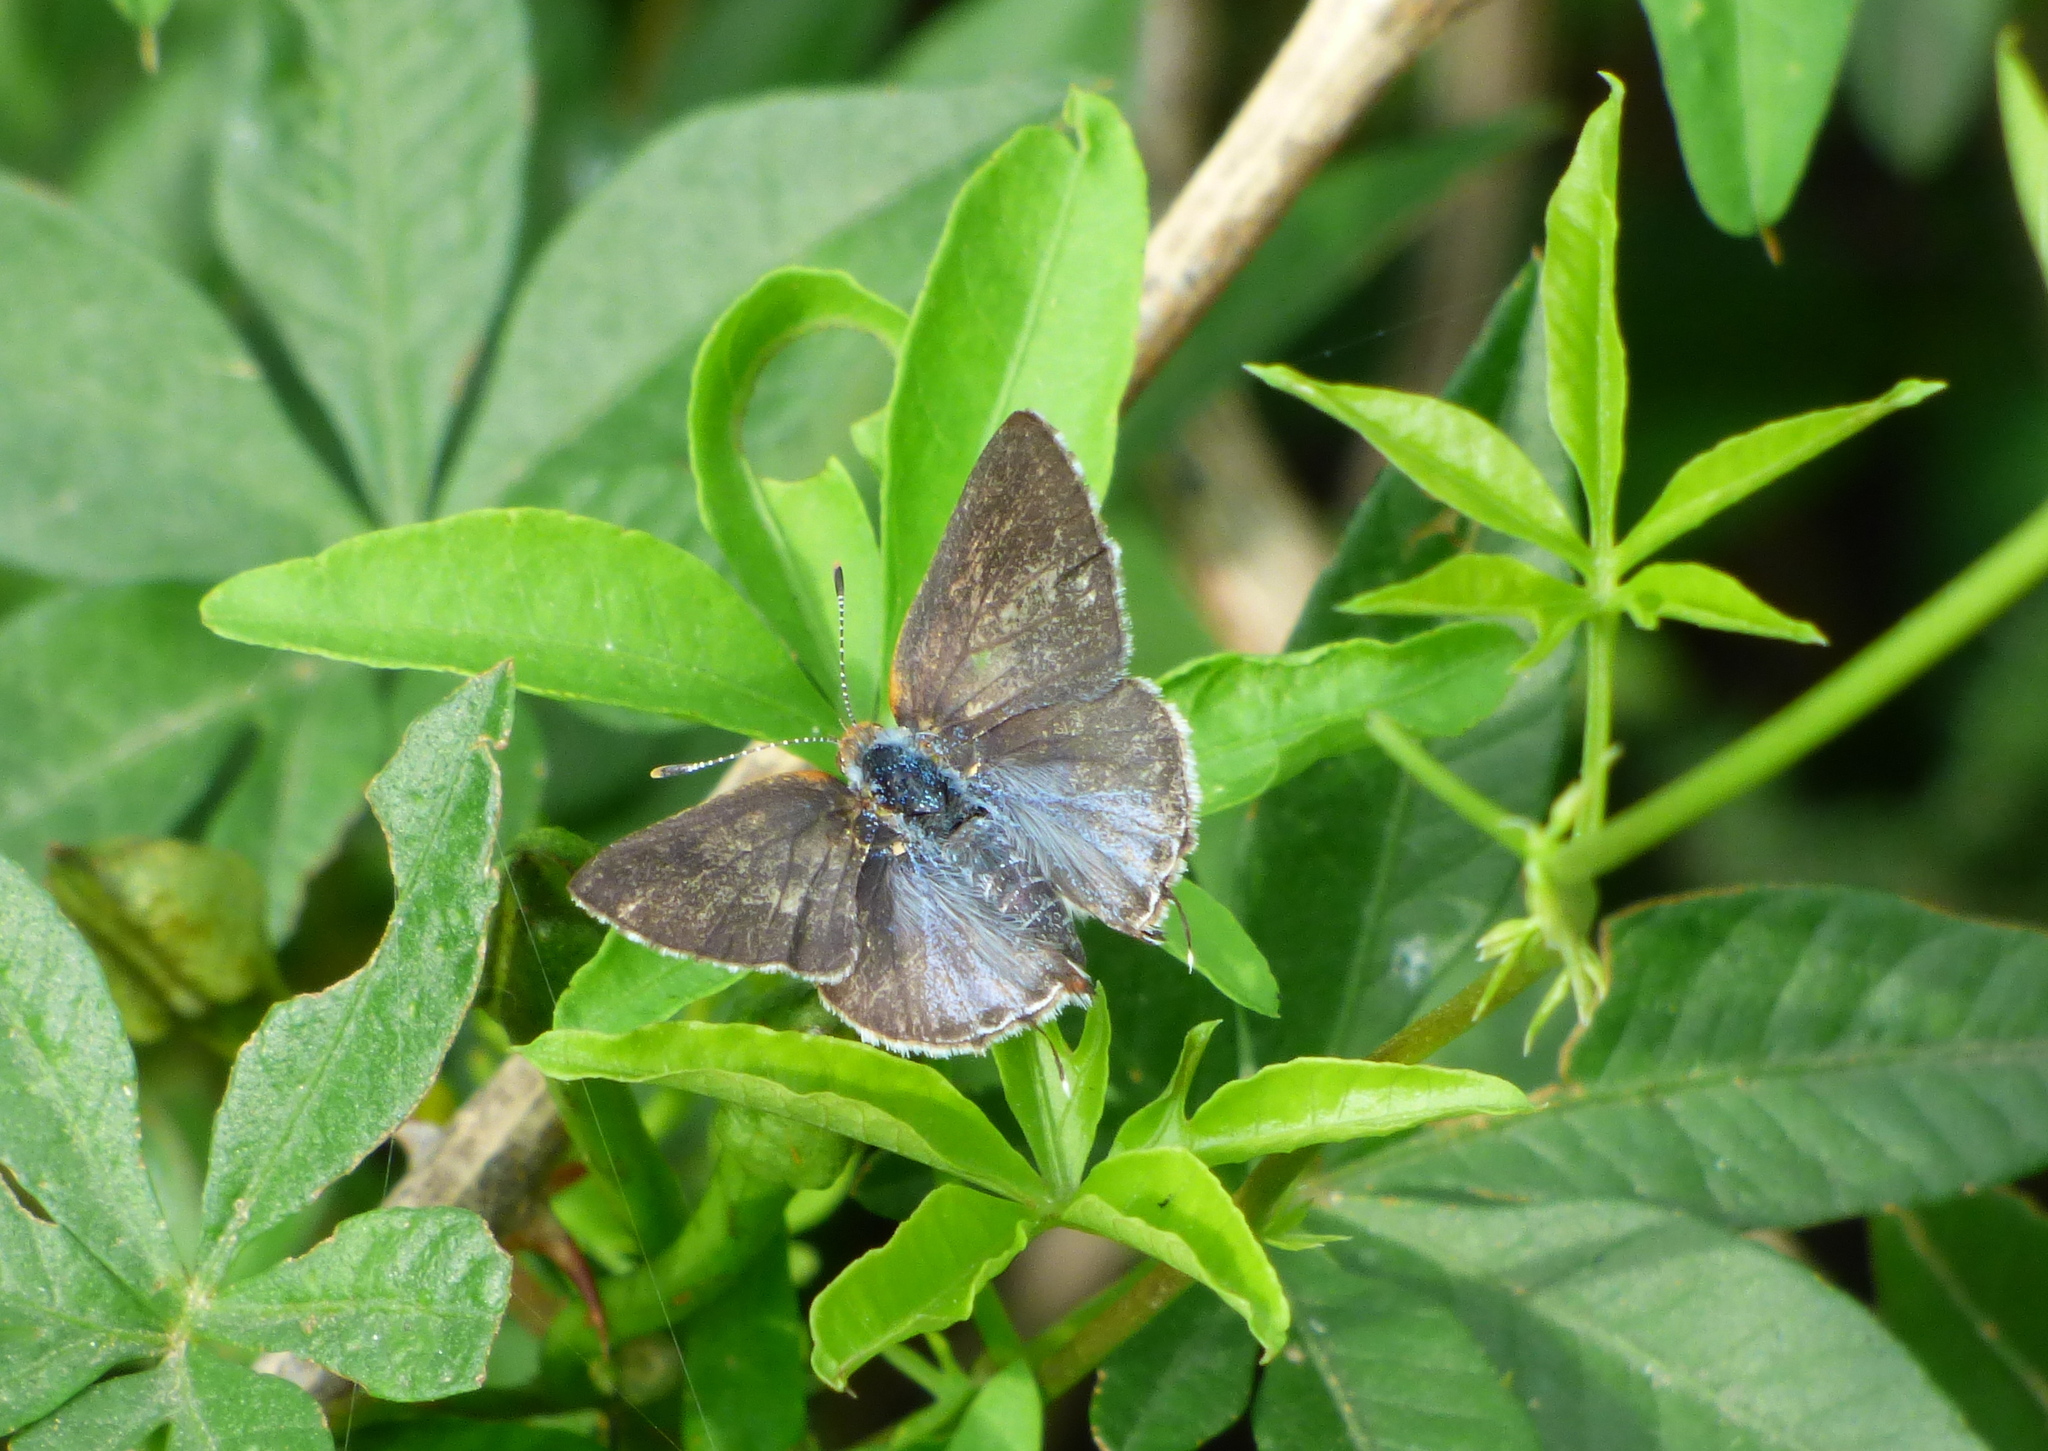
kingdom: Animalia
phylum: Arthropoda
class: Insecta
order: Lepidoptera
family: Lycaenidae
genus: Chlorostrymon
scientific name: Chlorostrymon simaethis
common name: Silver-banded hairstreak
